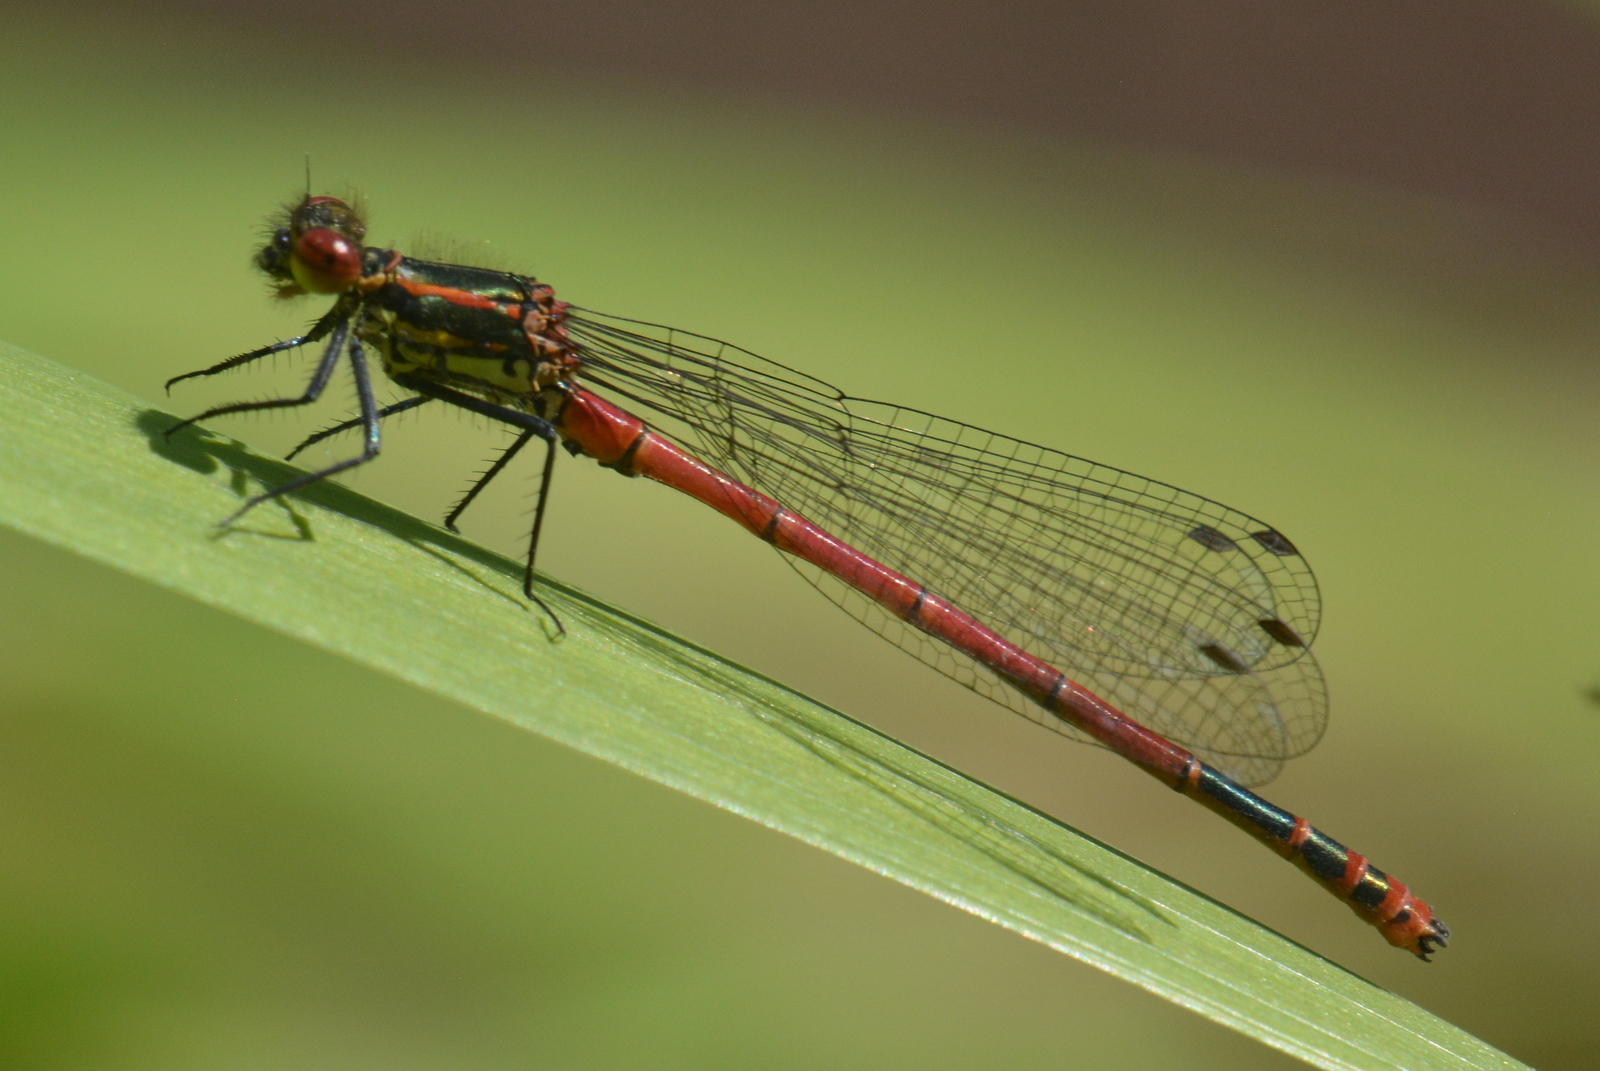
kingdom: Animalia
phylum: Arthropoda
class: Insecta
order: Odonata
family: Coenagrionidae
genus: Pyrrhosoma
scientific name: Pyrrhosoma nymphula
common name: Large red damsel
